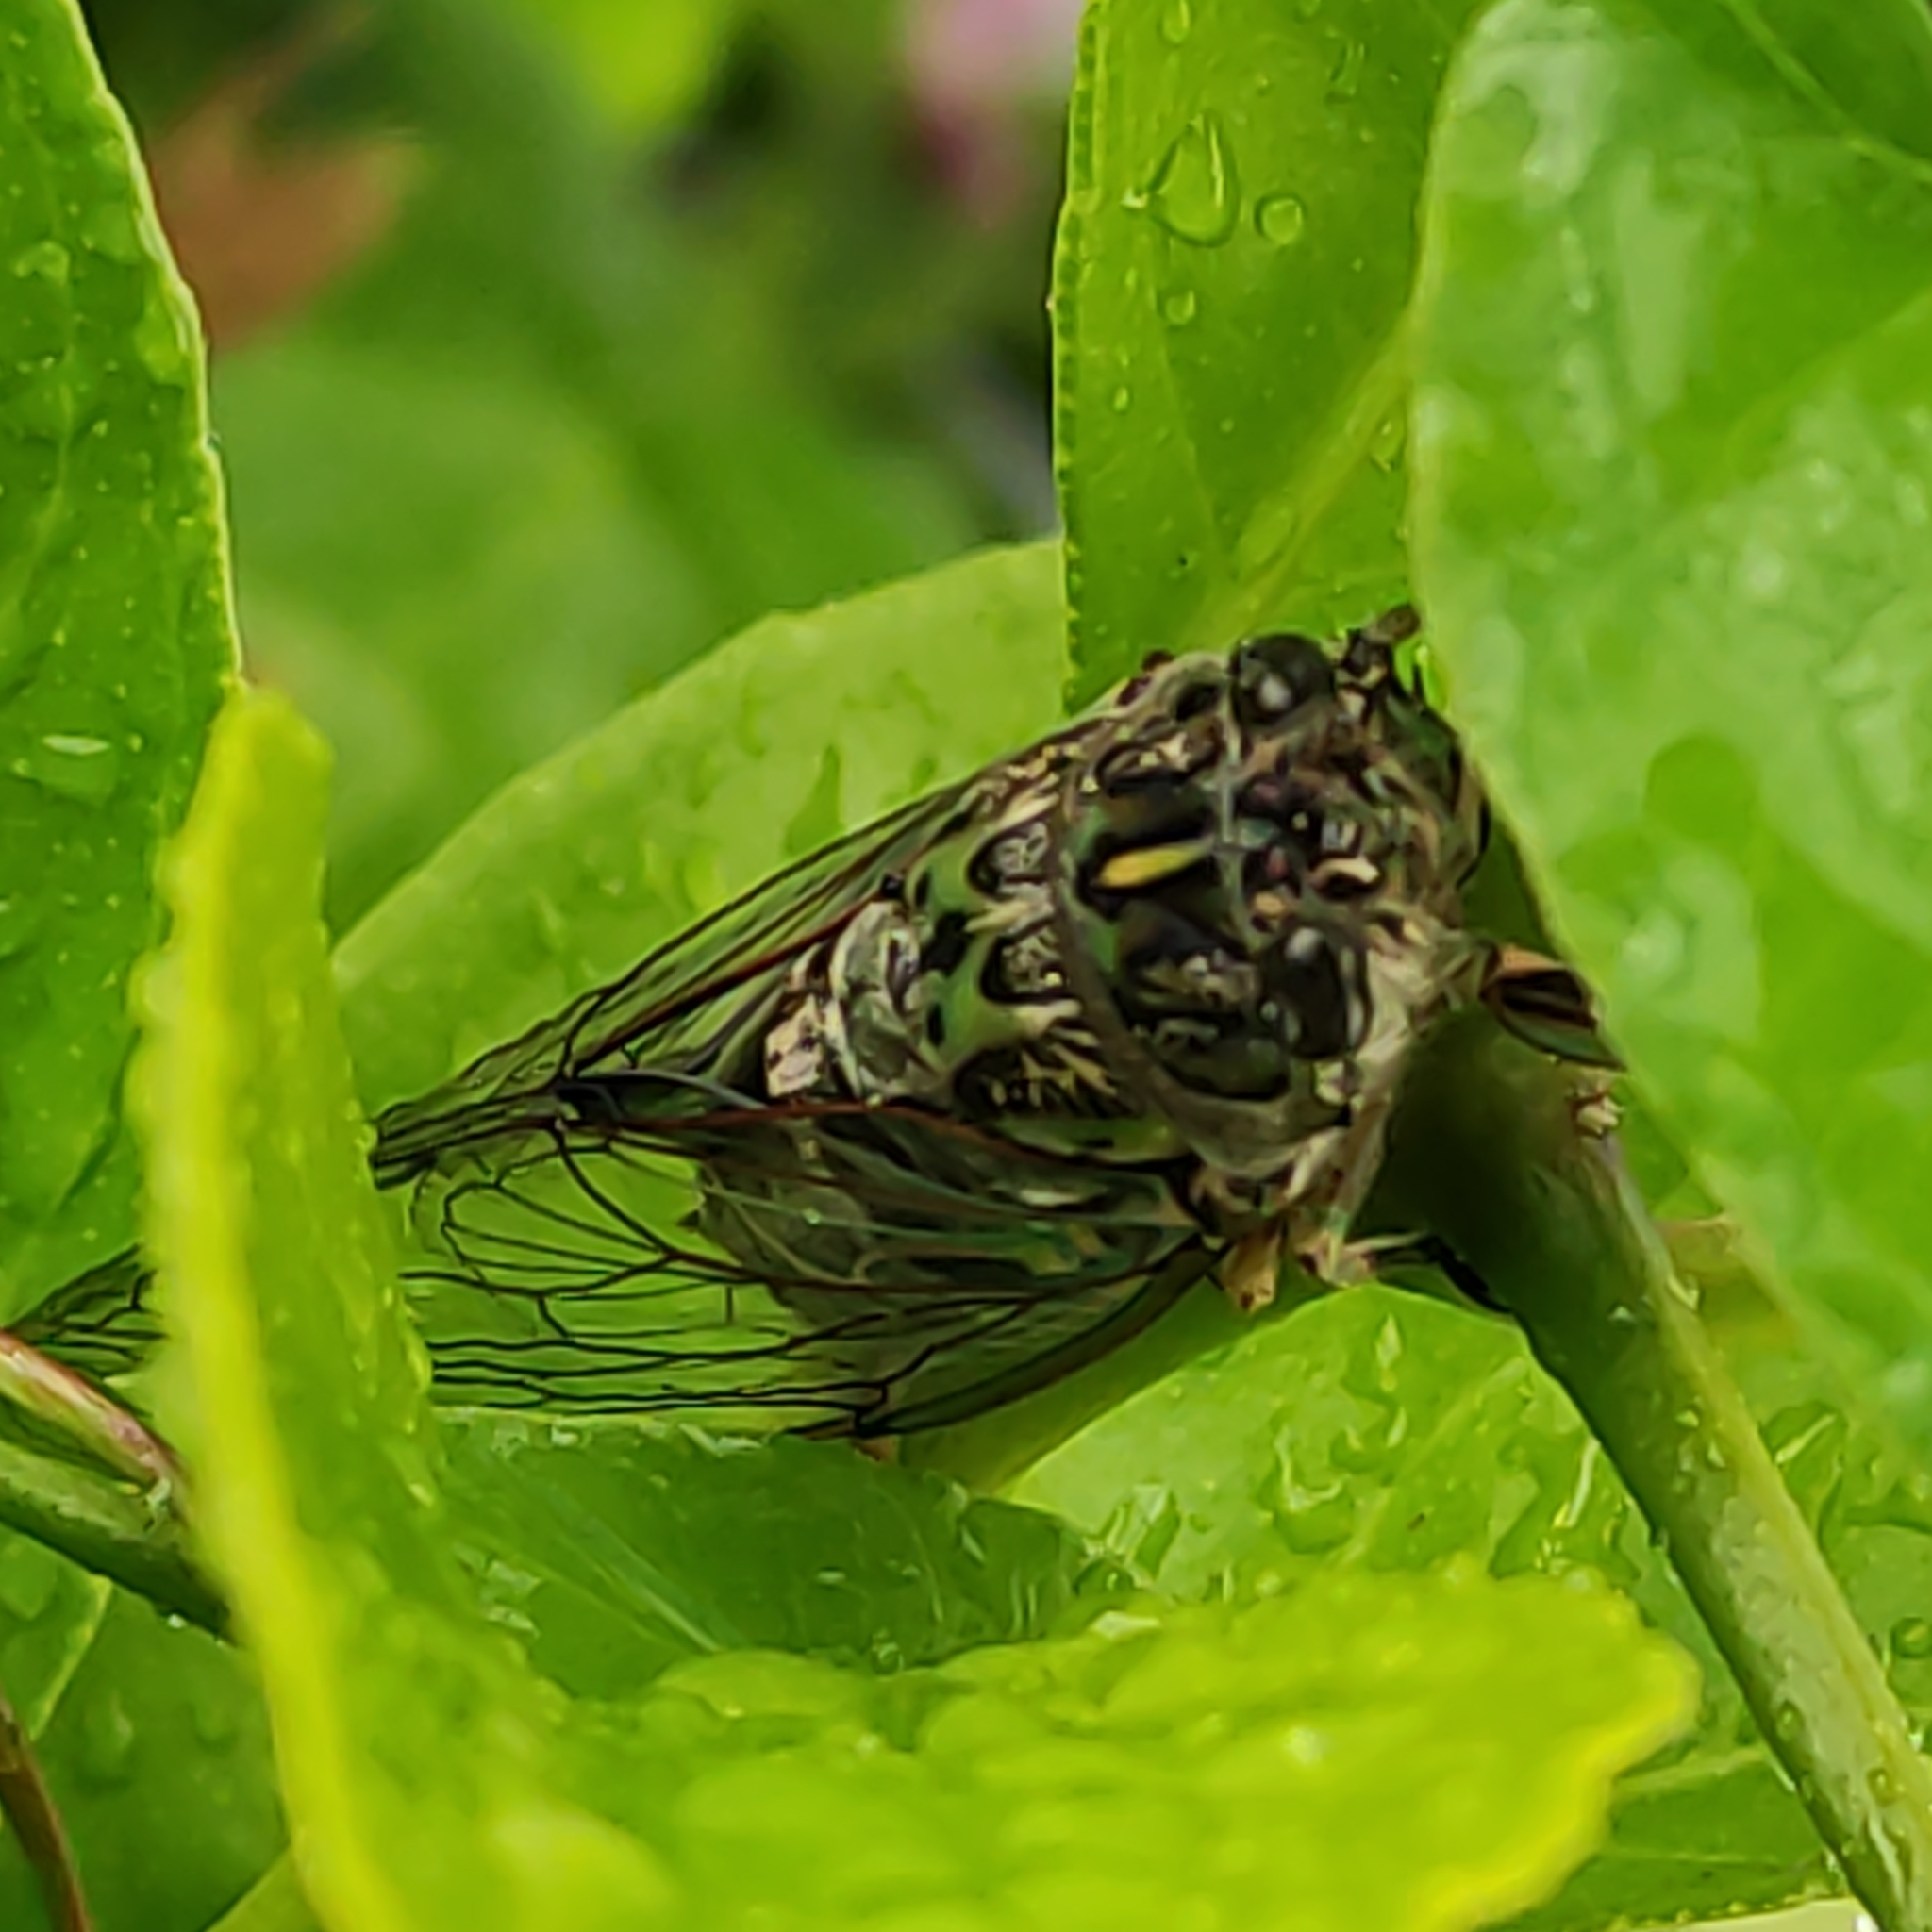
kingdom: Animalia
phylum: Arthropoda
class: Insecta
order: Hemiptera
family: Cicadidae
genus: Amphipsalta
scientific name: Amphipsalta zelandica
